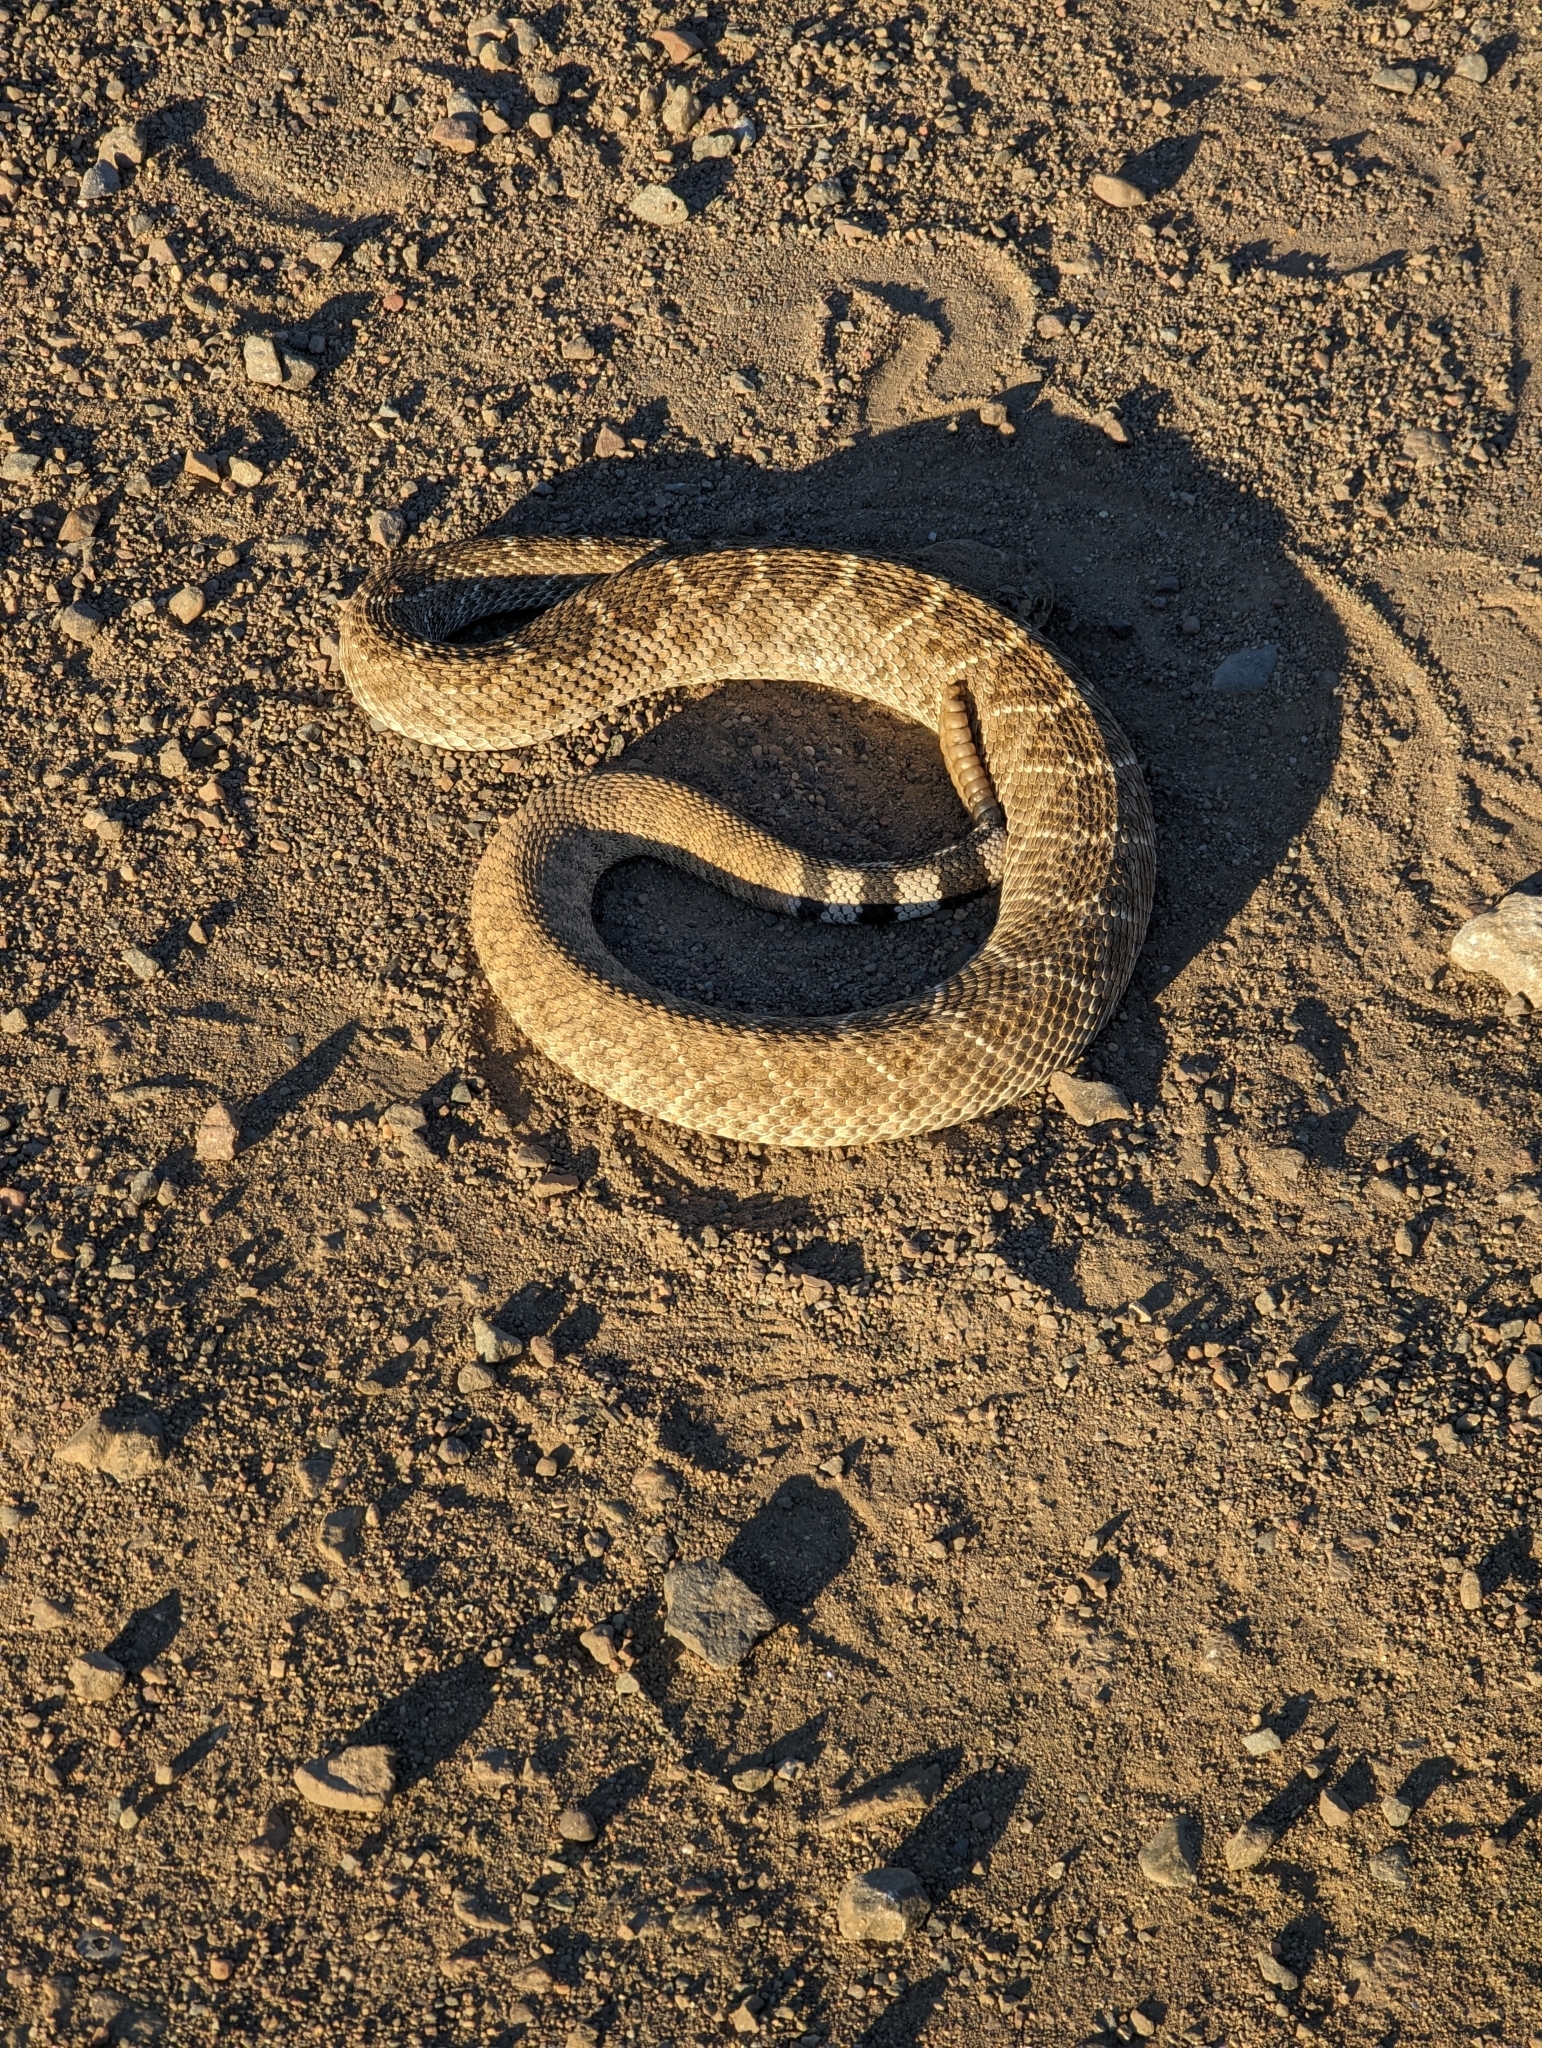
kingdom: Animalia
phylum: Chordata
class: Squamata
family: Viperidae
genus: Crotalus
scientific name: Crotalus atrox
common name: Western diamond-backed rattlesnake
